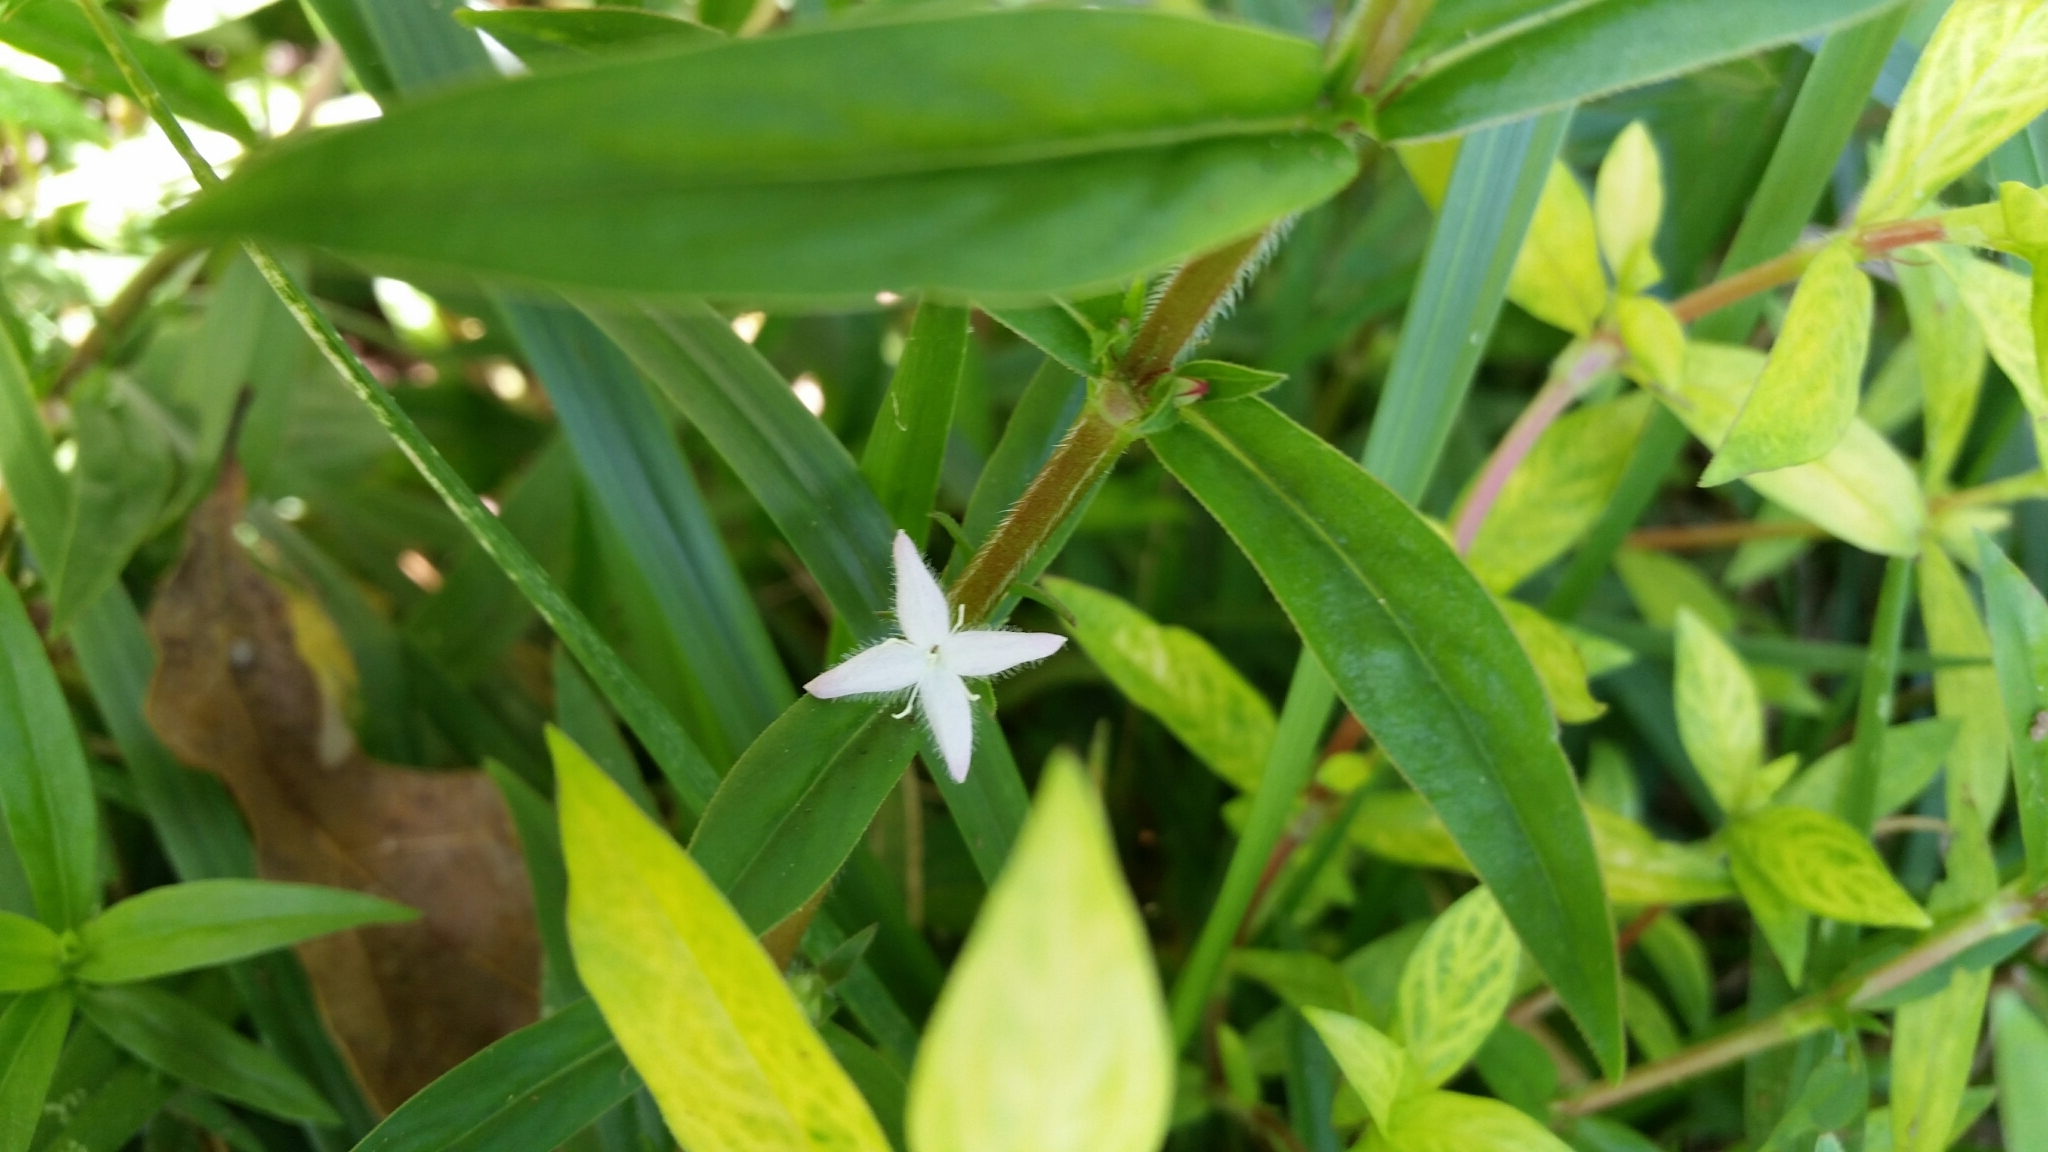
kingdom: Plantae
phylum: Tracheophyta
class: Magnoliopsida
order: Gentianales
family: Rubiaceae
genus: Diodia
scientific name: Diodia virginiana
